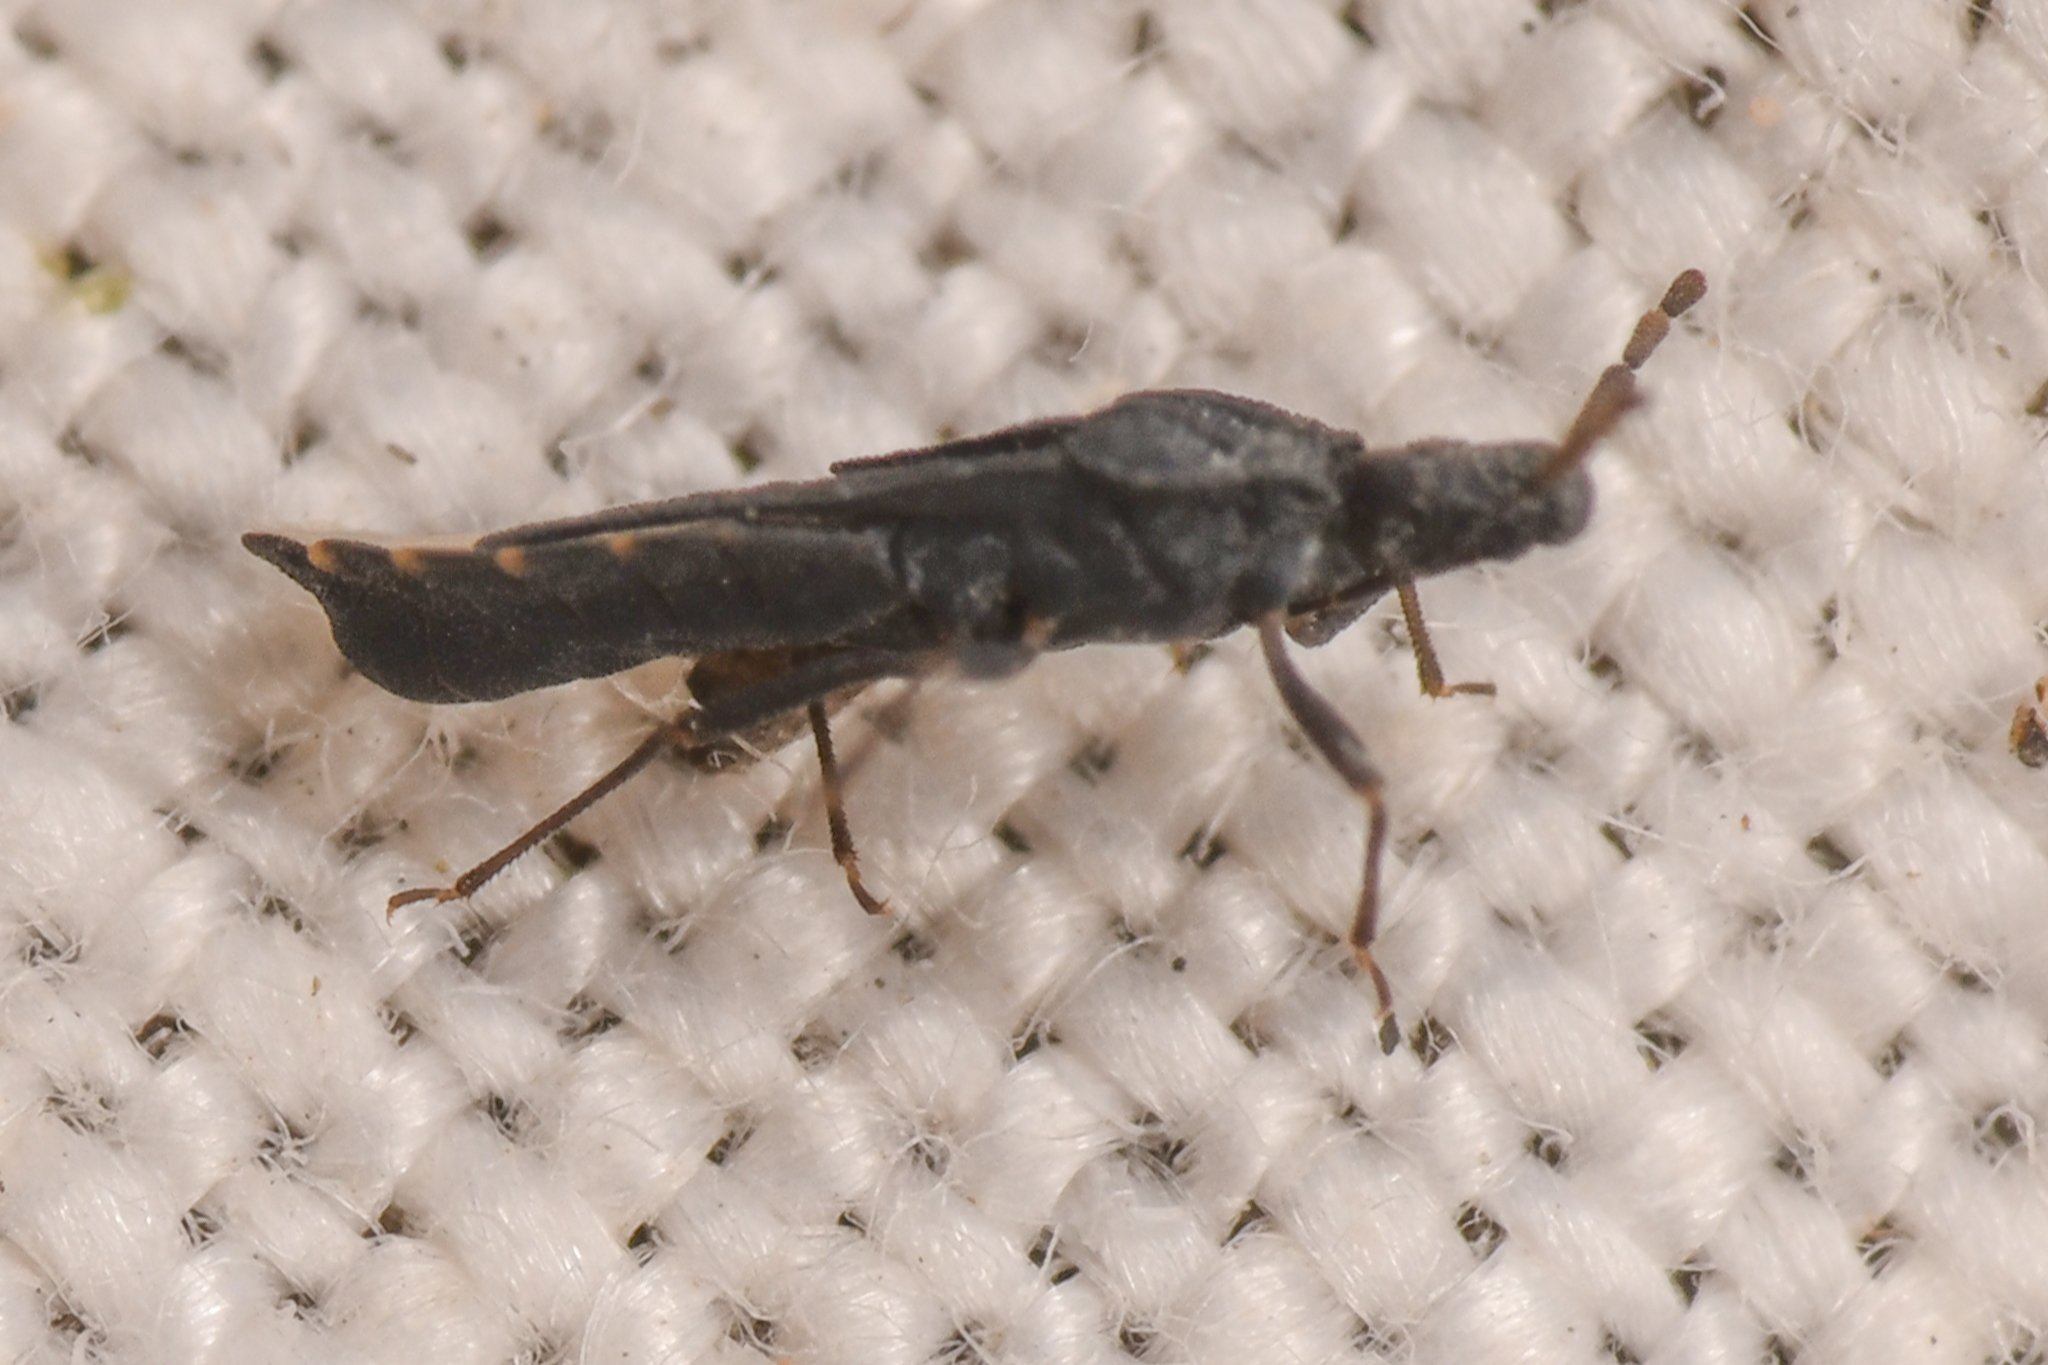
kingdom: Animalia
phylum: Arthropoda
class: Insecta
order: Hemiptera
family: Aradidae
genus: Aradus
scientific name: Aradus lugubris
